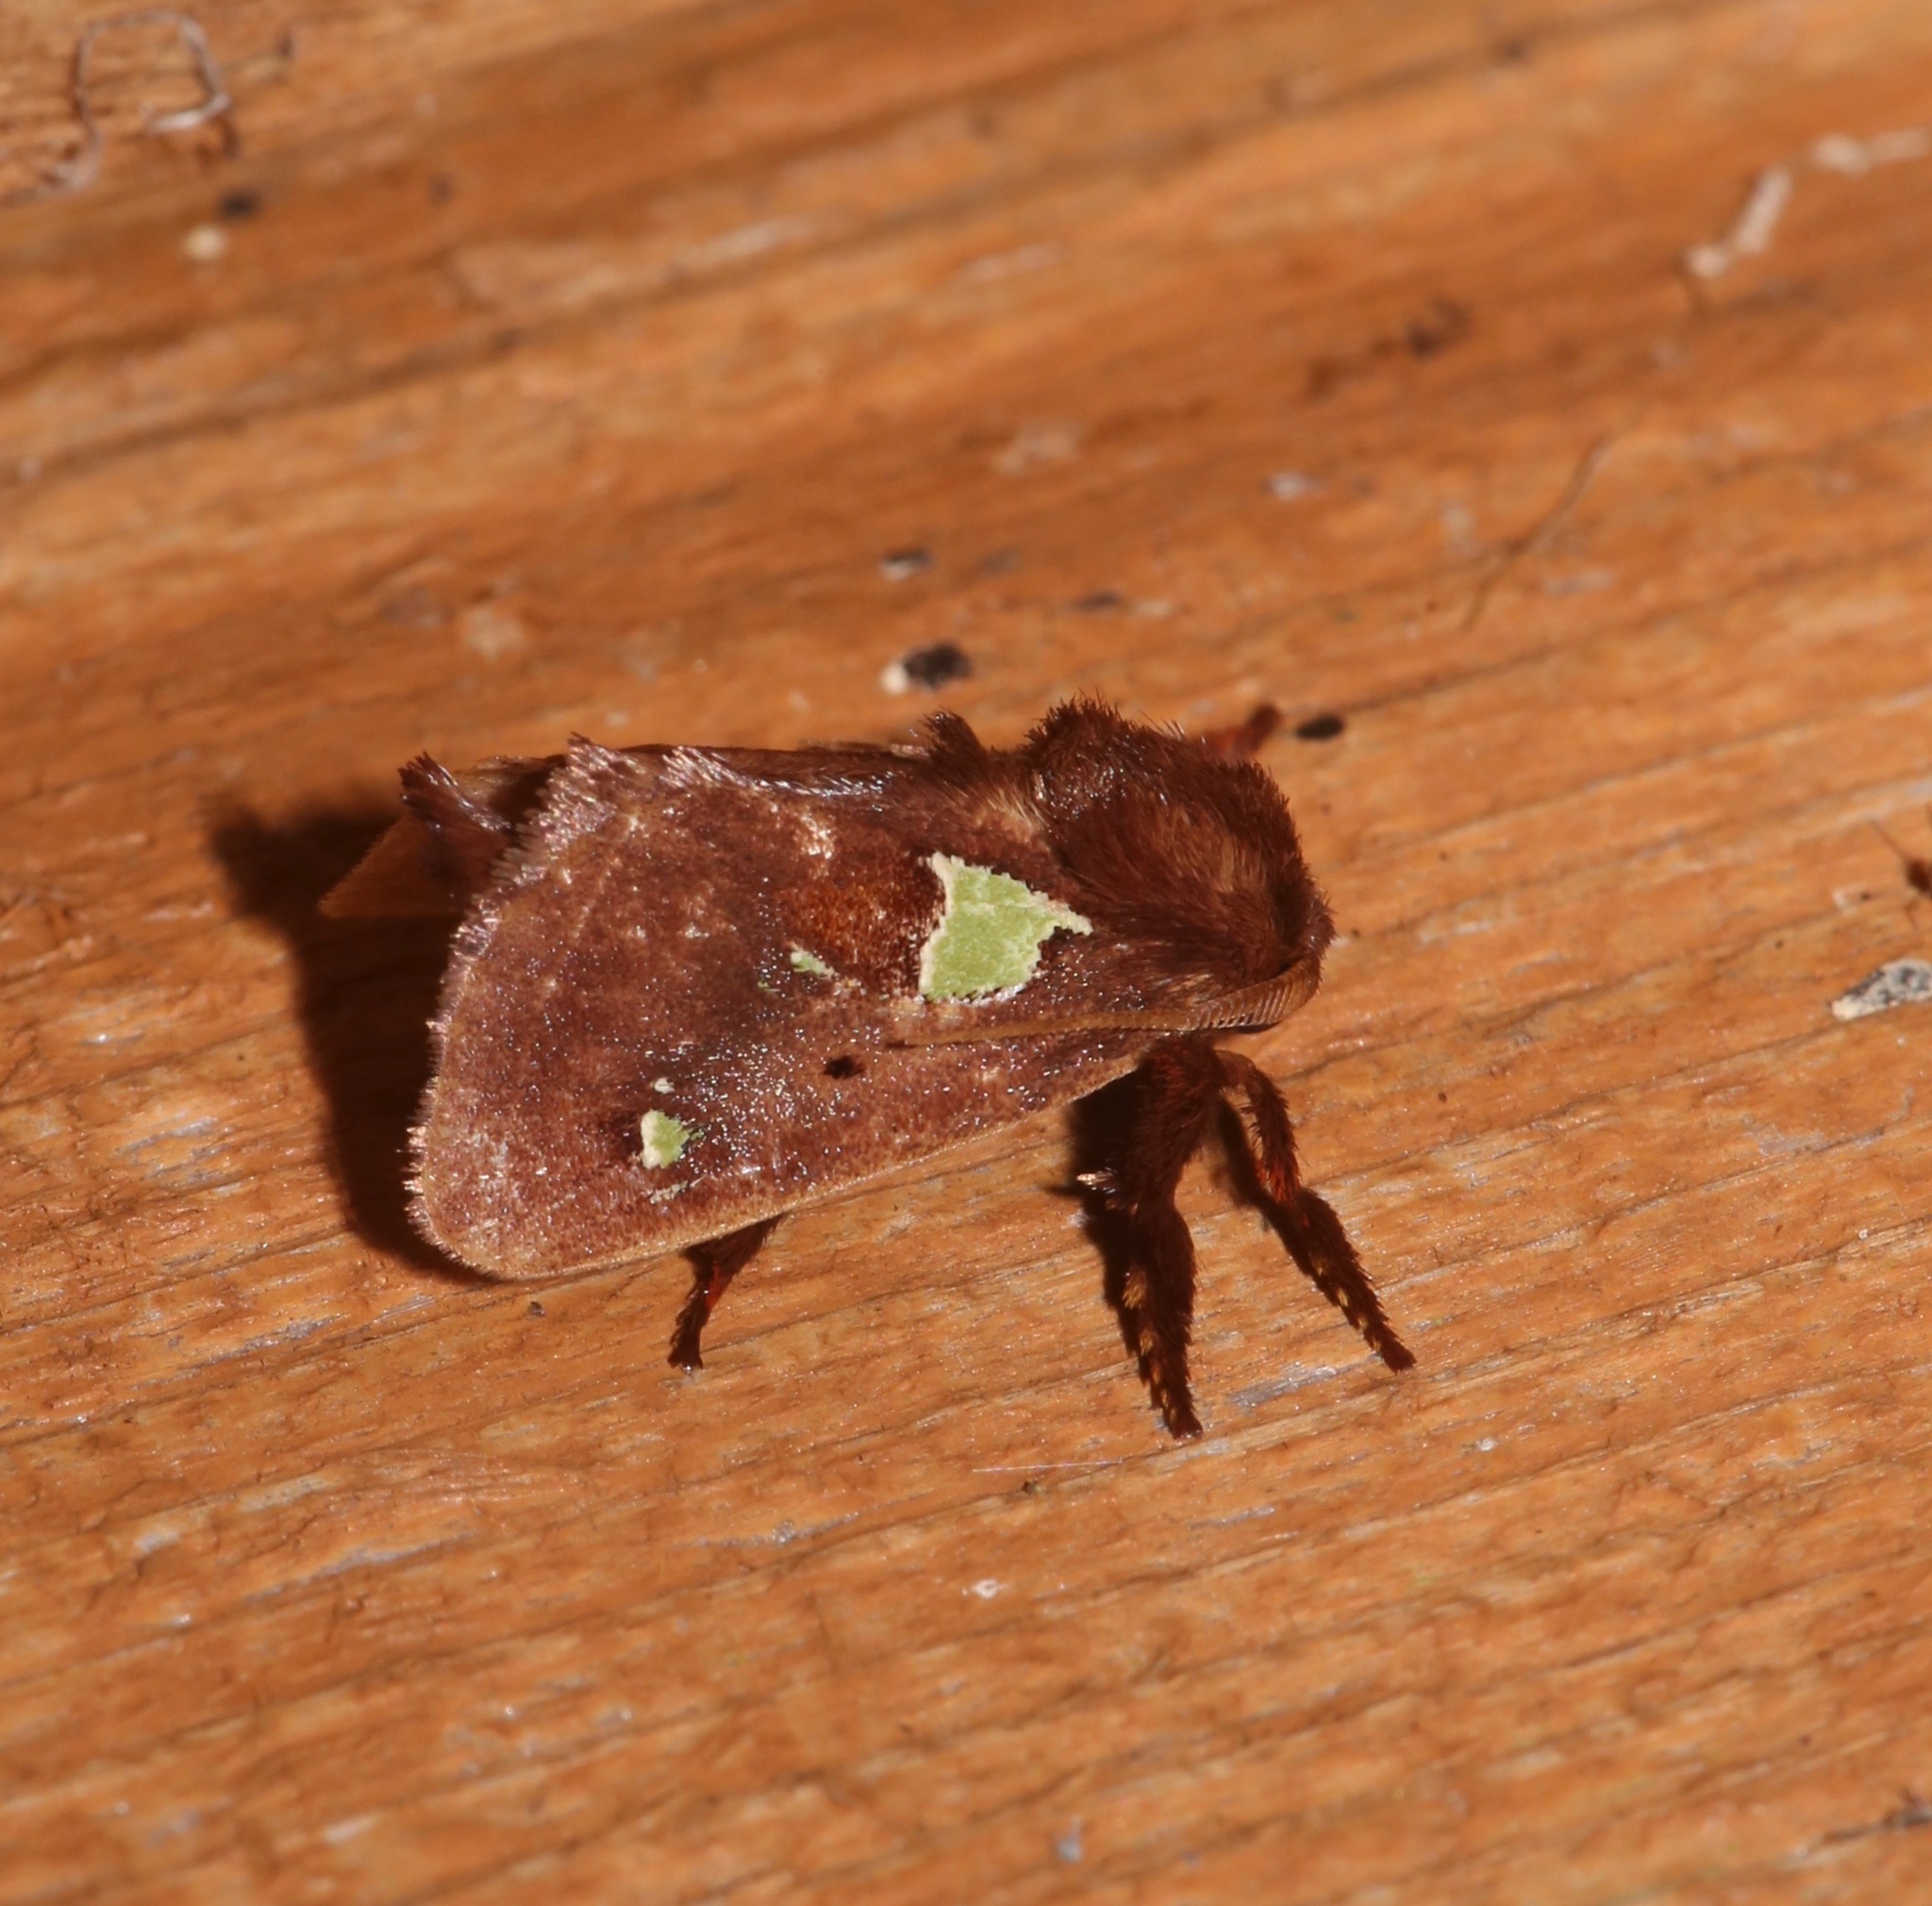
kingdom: Animalia
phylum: Arthropoda
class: Insecta
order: Lepidoptera
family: Limacodidae
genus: Euclea
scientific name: Euclea delphinii
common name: Spiny oak-slug moth
